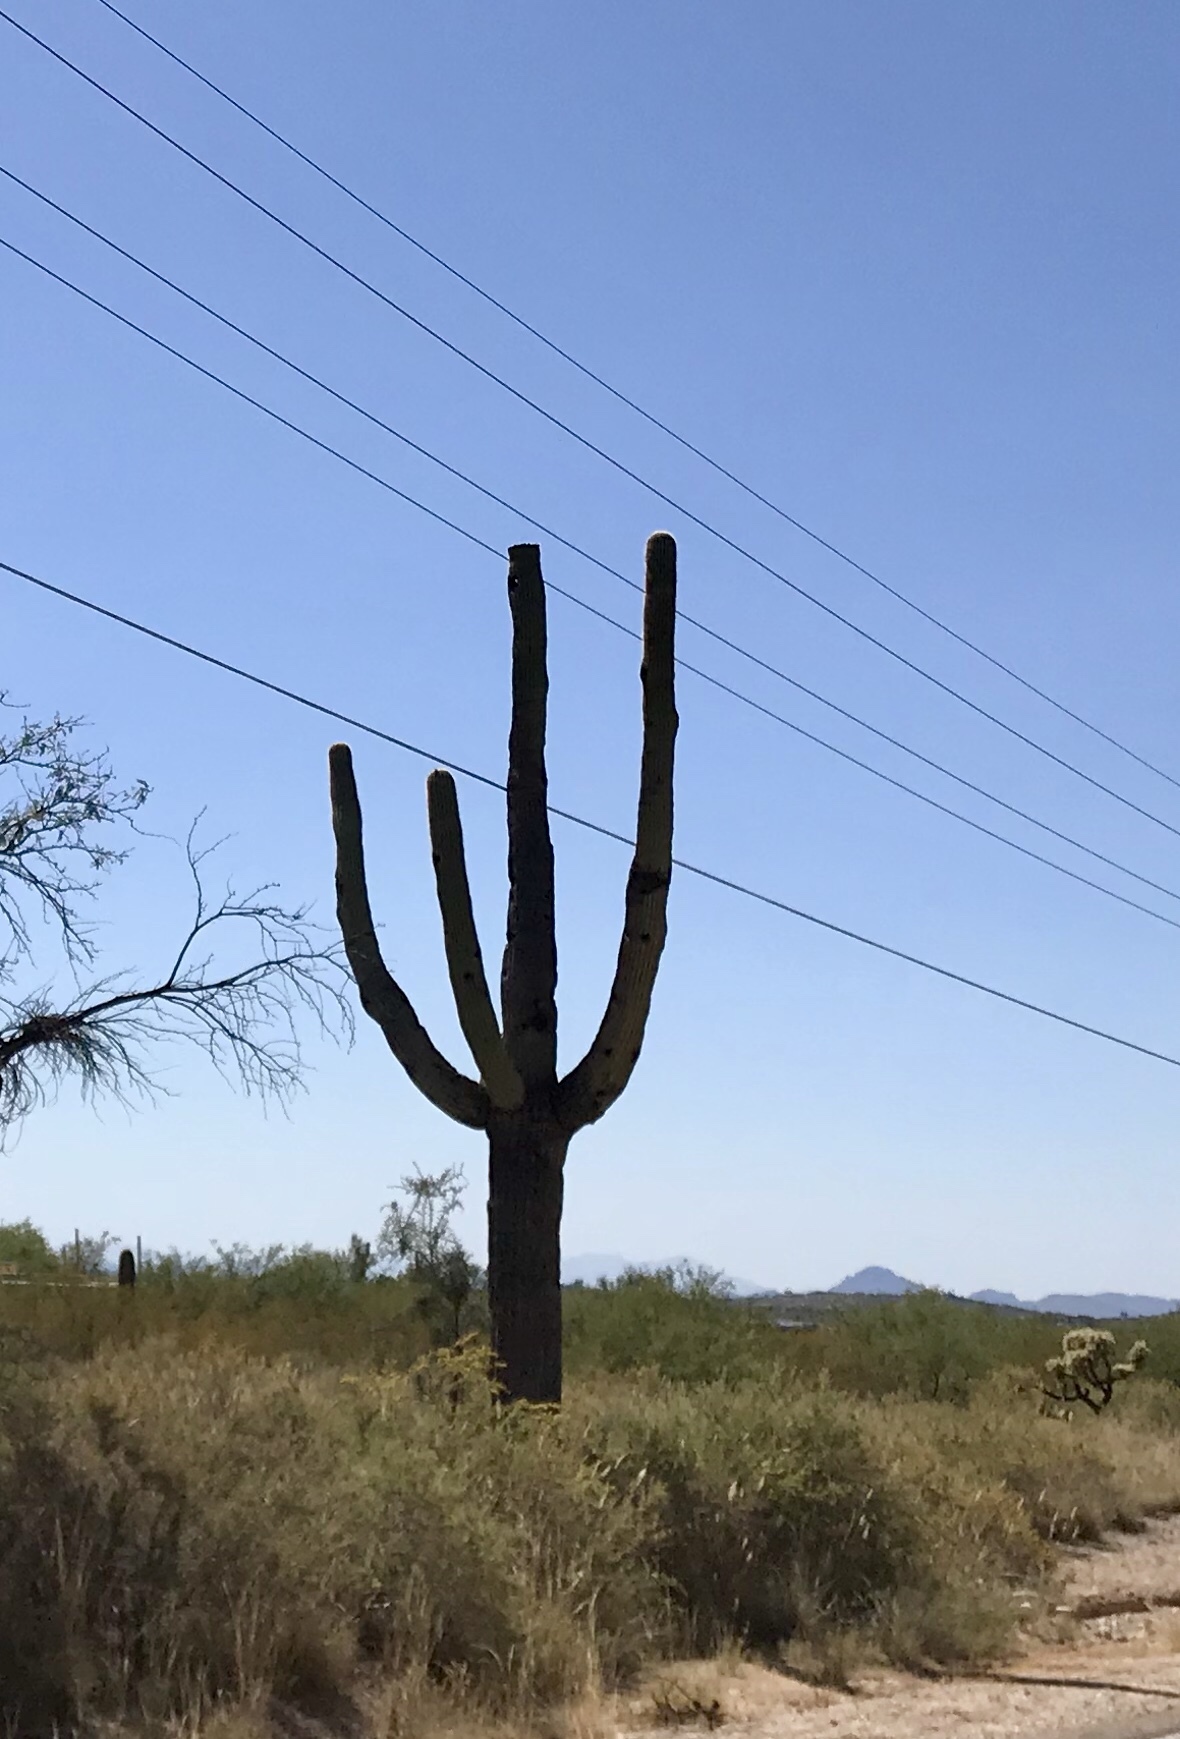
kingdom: Plantae
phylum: Tracheophyta
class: Magnoliopsida
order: Caryophyllales
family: Cactaceae
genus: Carnegiea
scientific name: Carnegiea gigantea
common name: Saguaro
